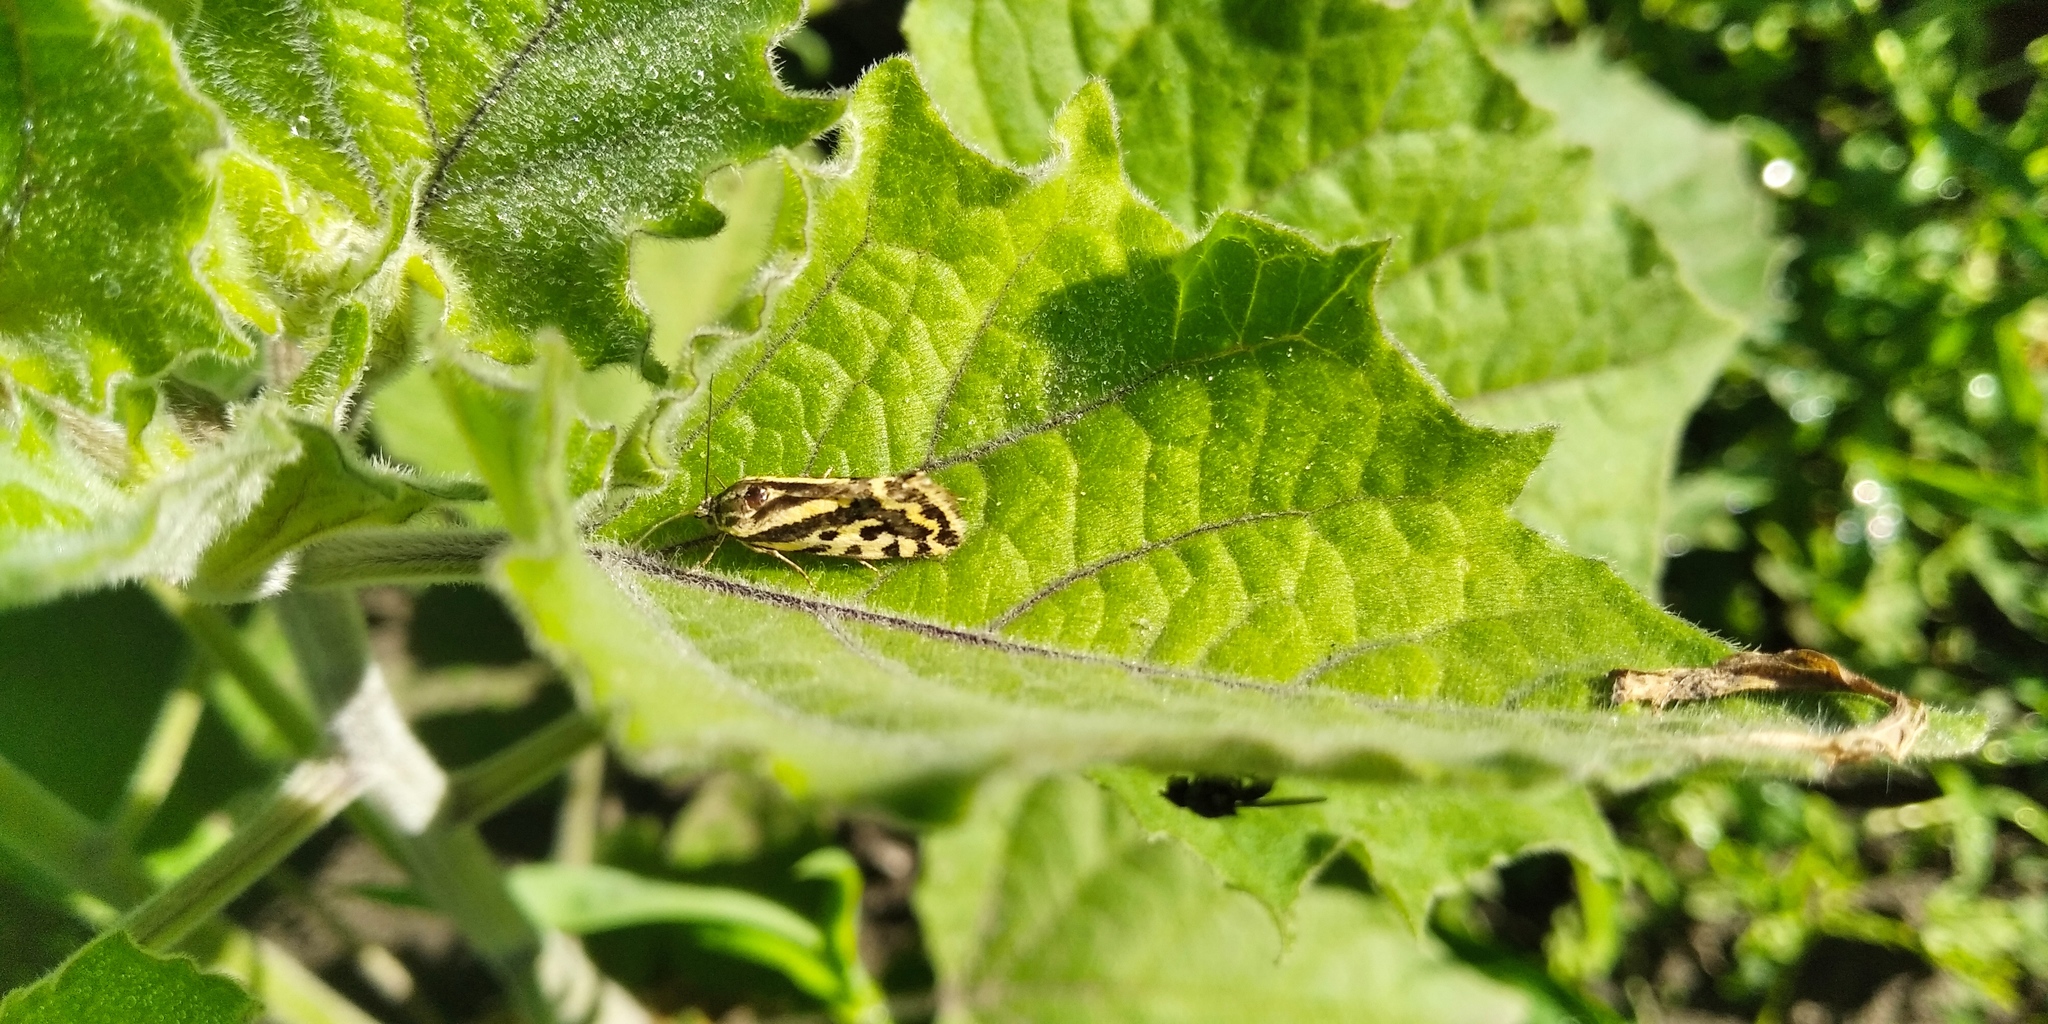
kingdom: Animalia
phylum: Arthropoda
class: Insecta
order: Lepidoptera
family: Noctuidae
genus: Acontia
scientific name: Acontia trabealis
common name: Spotted sulphur
